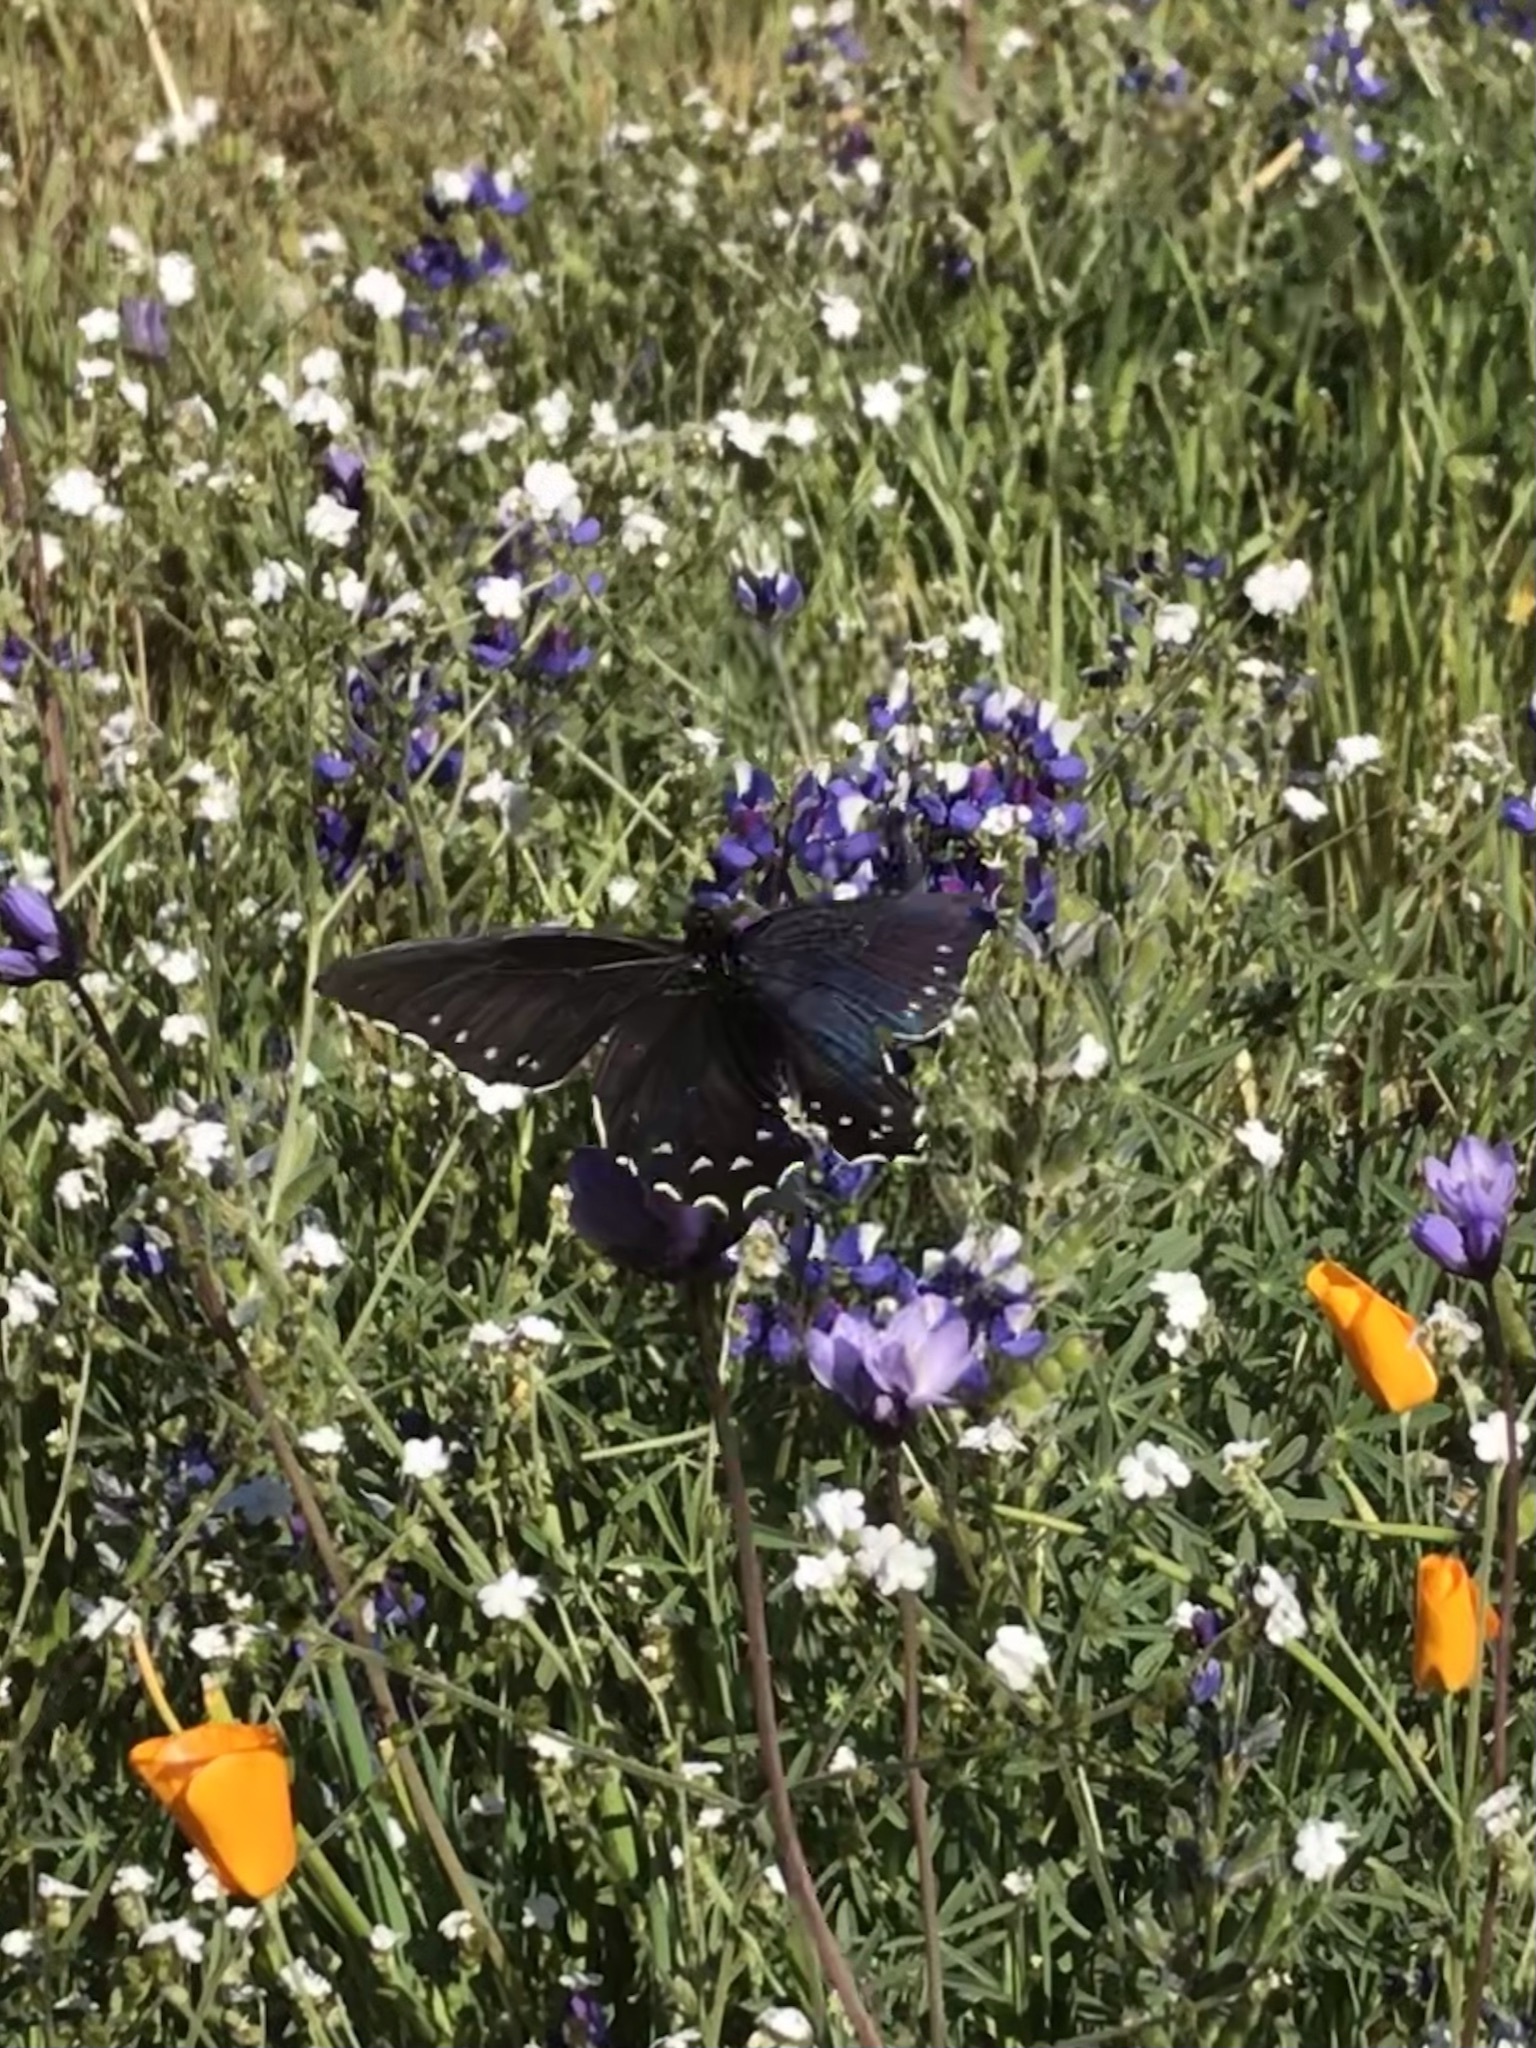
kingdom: Animalia
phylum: Arthropoda
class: Insecta
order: Lepidoptera
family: Papilionidae
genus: Battus
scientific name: Battus philenor
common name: Pipevine swallowtail
